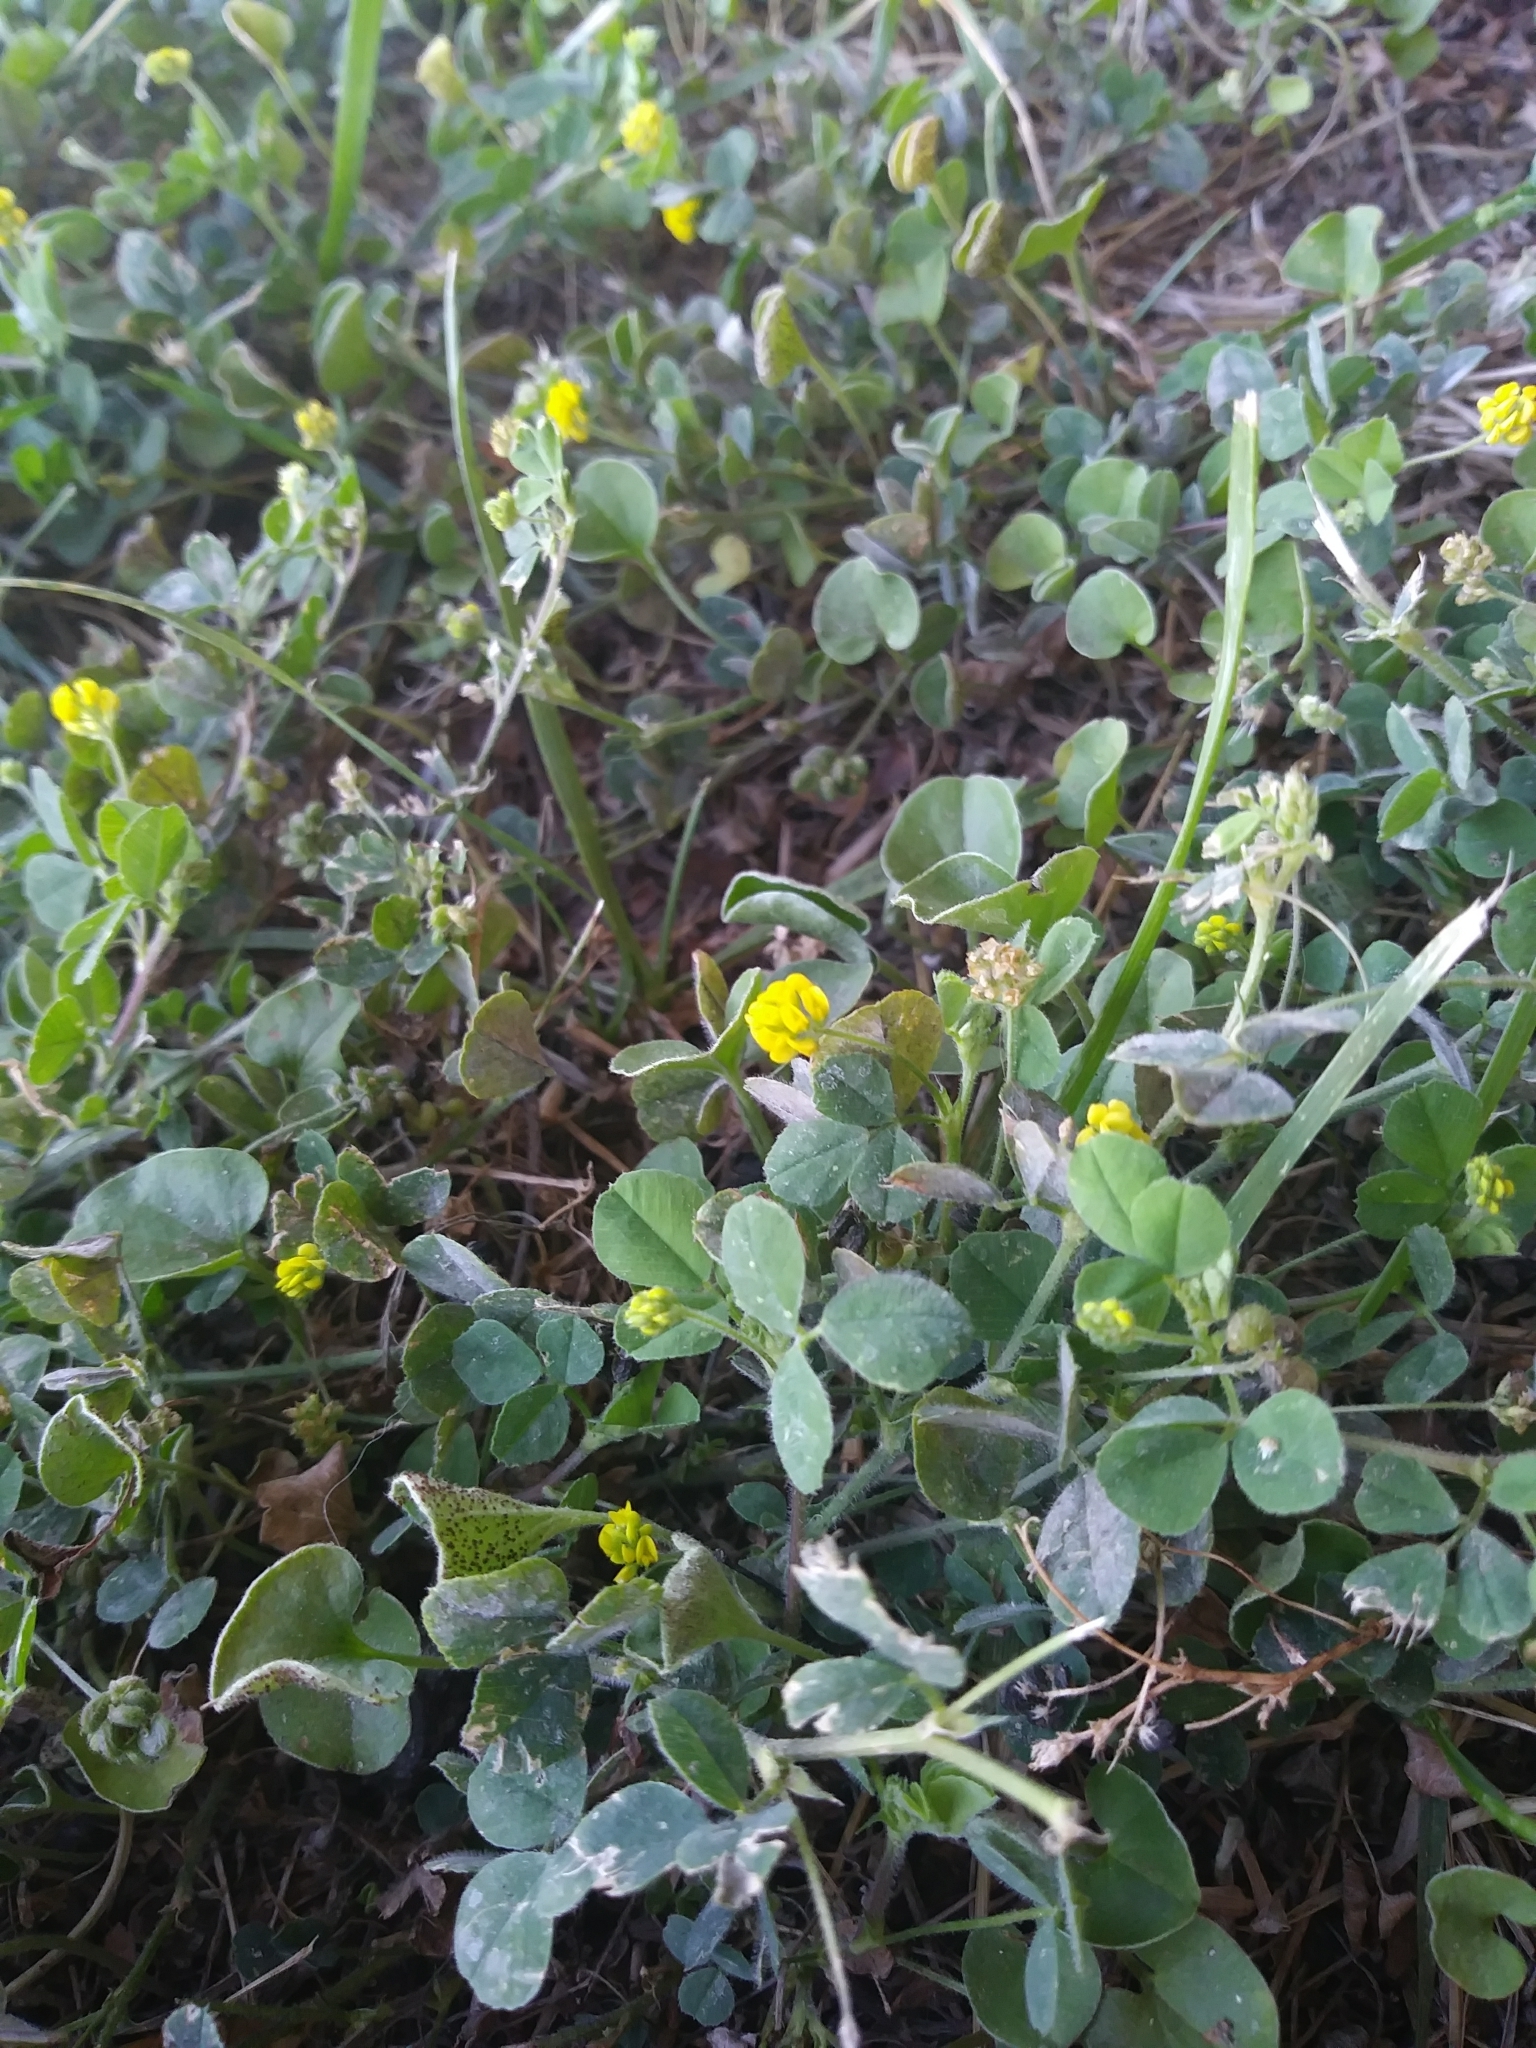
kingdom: Plantae
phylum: Tracheophyta
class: Magnoliopsida
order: Fabales
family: Fabaceae
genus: Medicago
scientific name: Medicago lupulina
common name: Black medick
